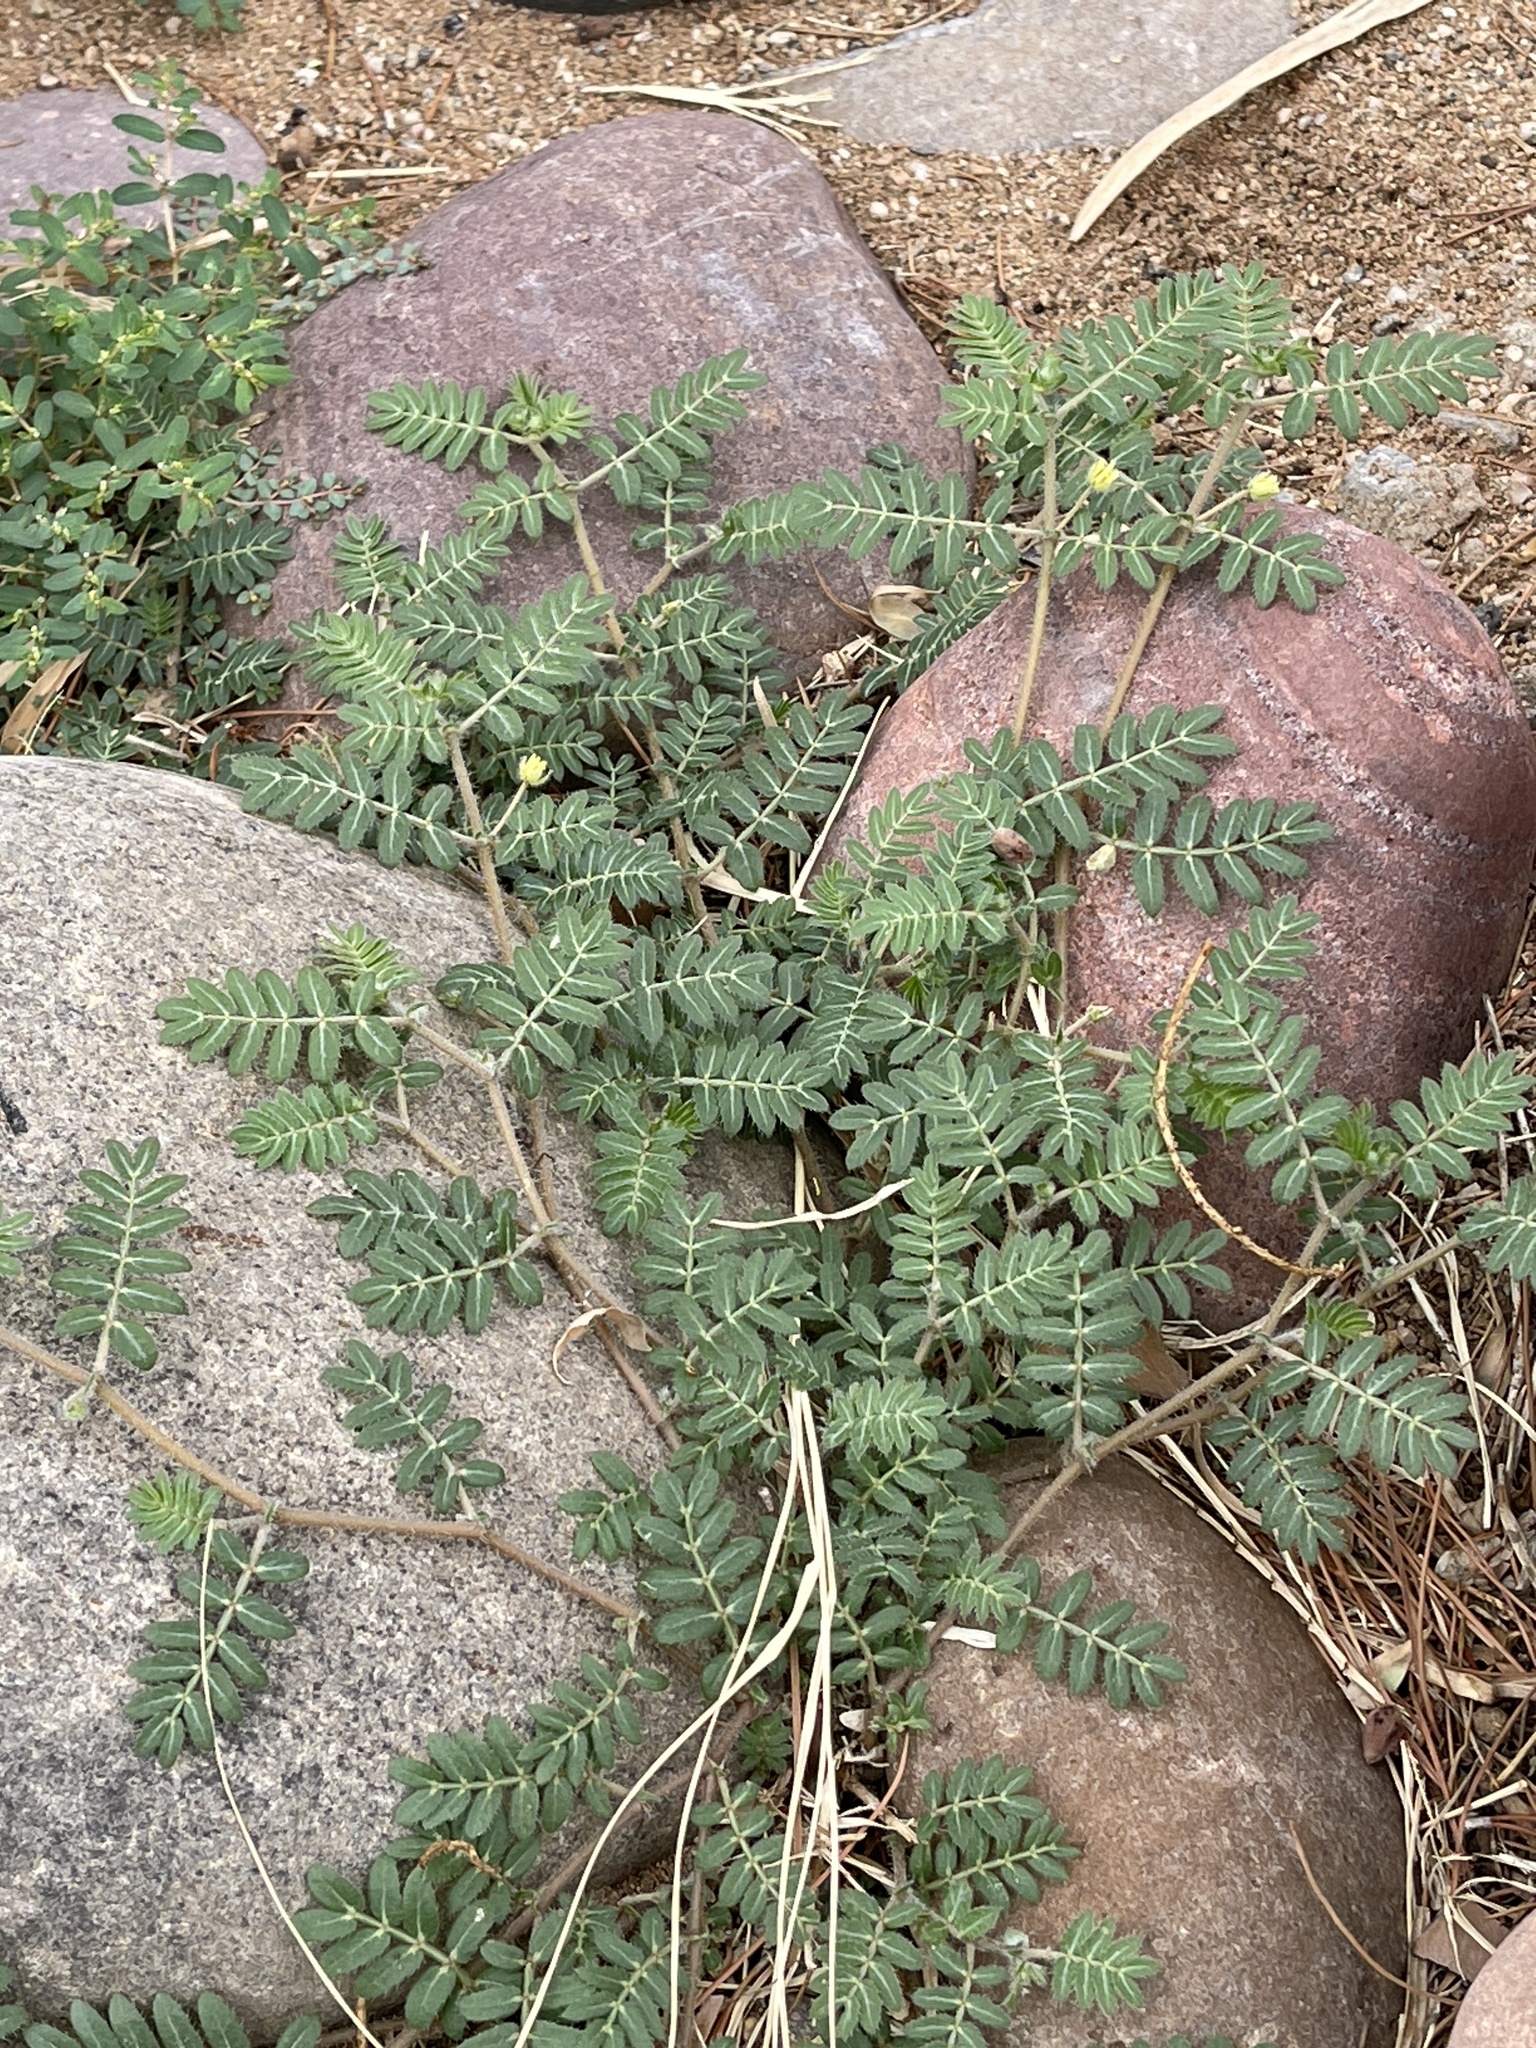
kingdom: Plantae
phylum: Tracheophyta
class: Magnoliopsida
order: Zygophyllales
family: Zygophyllaceae
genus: Tribulus
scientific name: Tribulus terrestris
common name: Puncturevine
